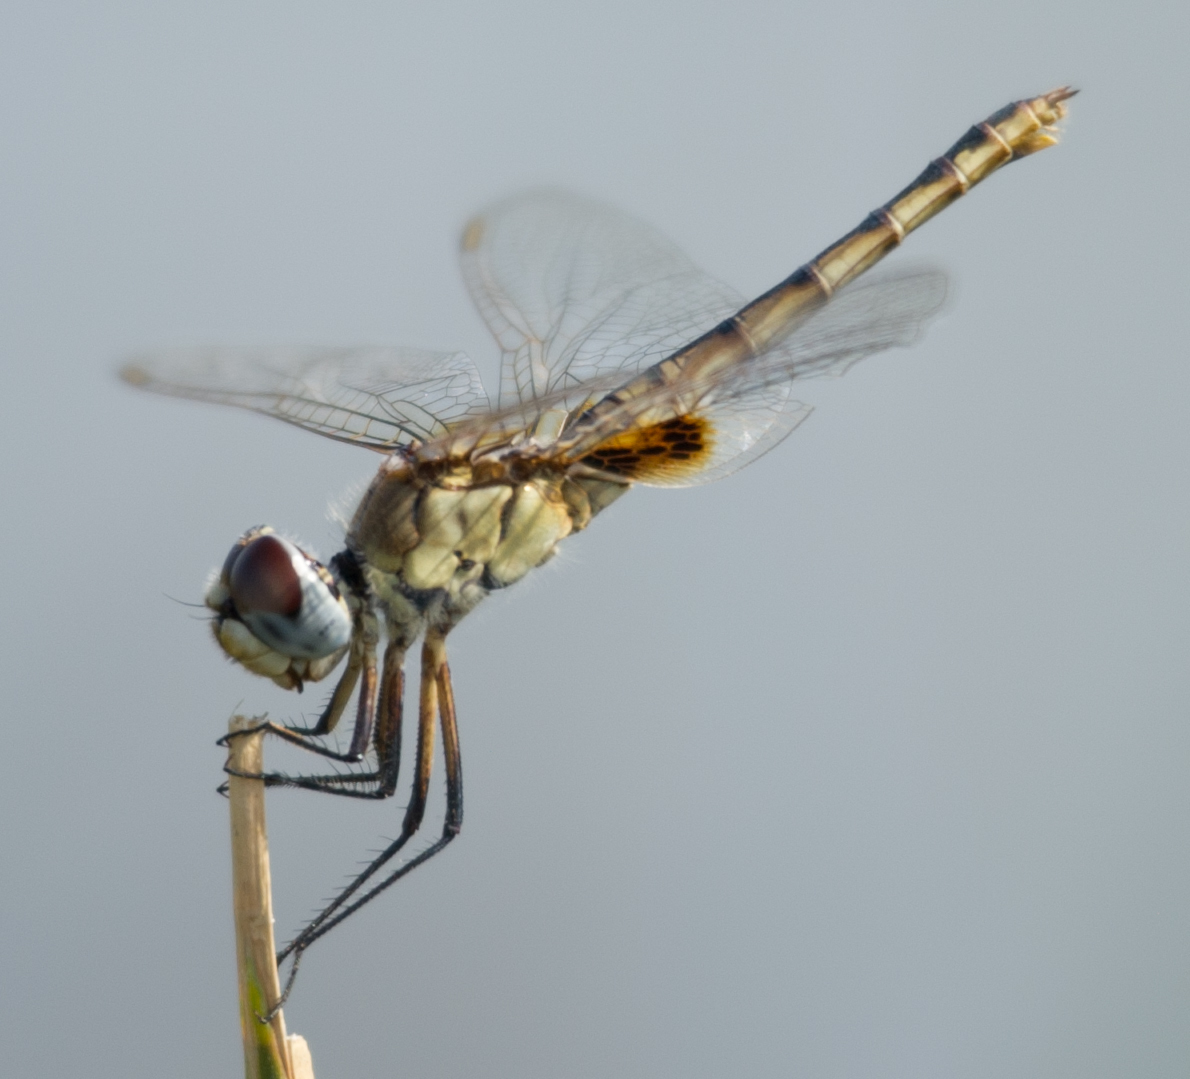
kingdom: Animalia
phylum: Arthropoda
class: Insecta
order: Odonata
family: Libellulidae
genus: Urothemis
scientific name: Urothemis edwardsii
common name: Blue basker
